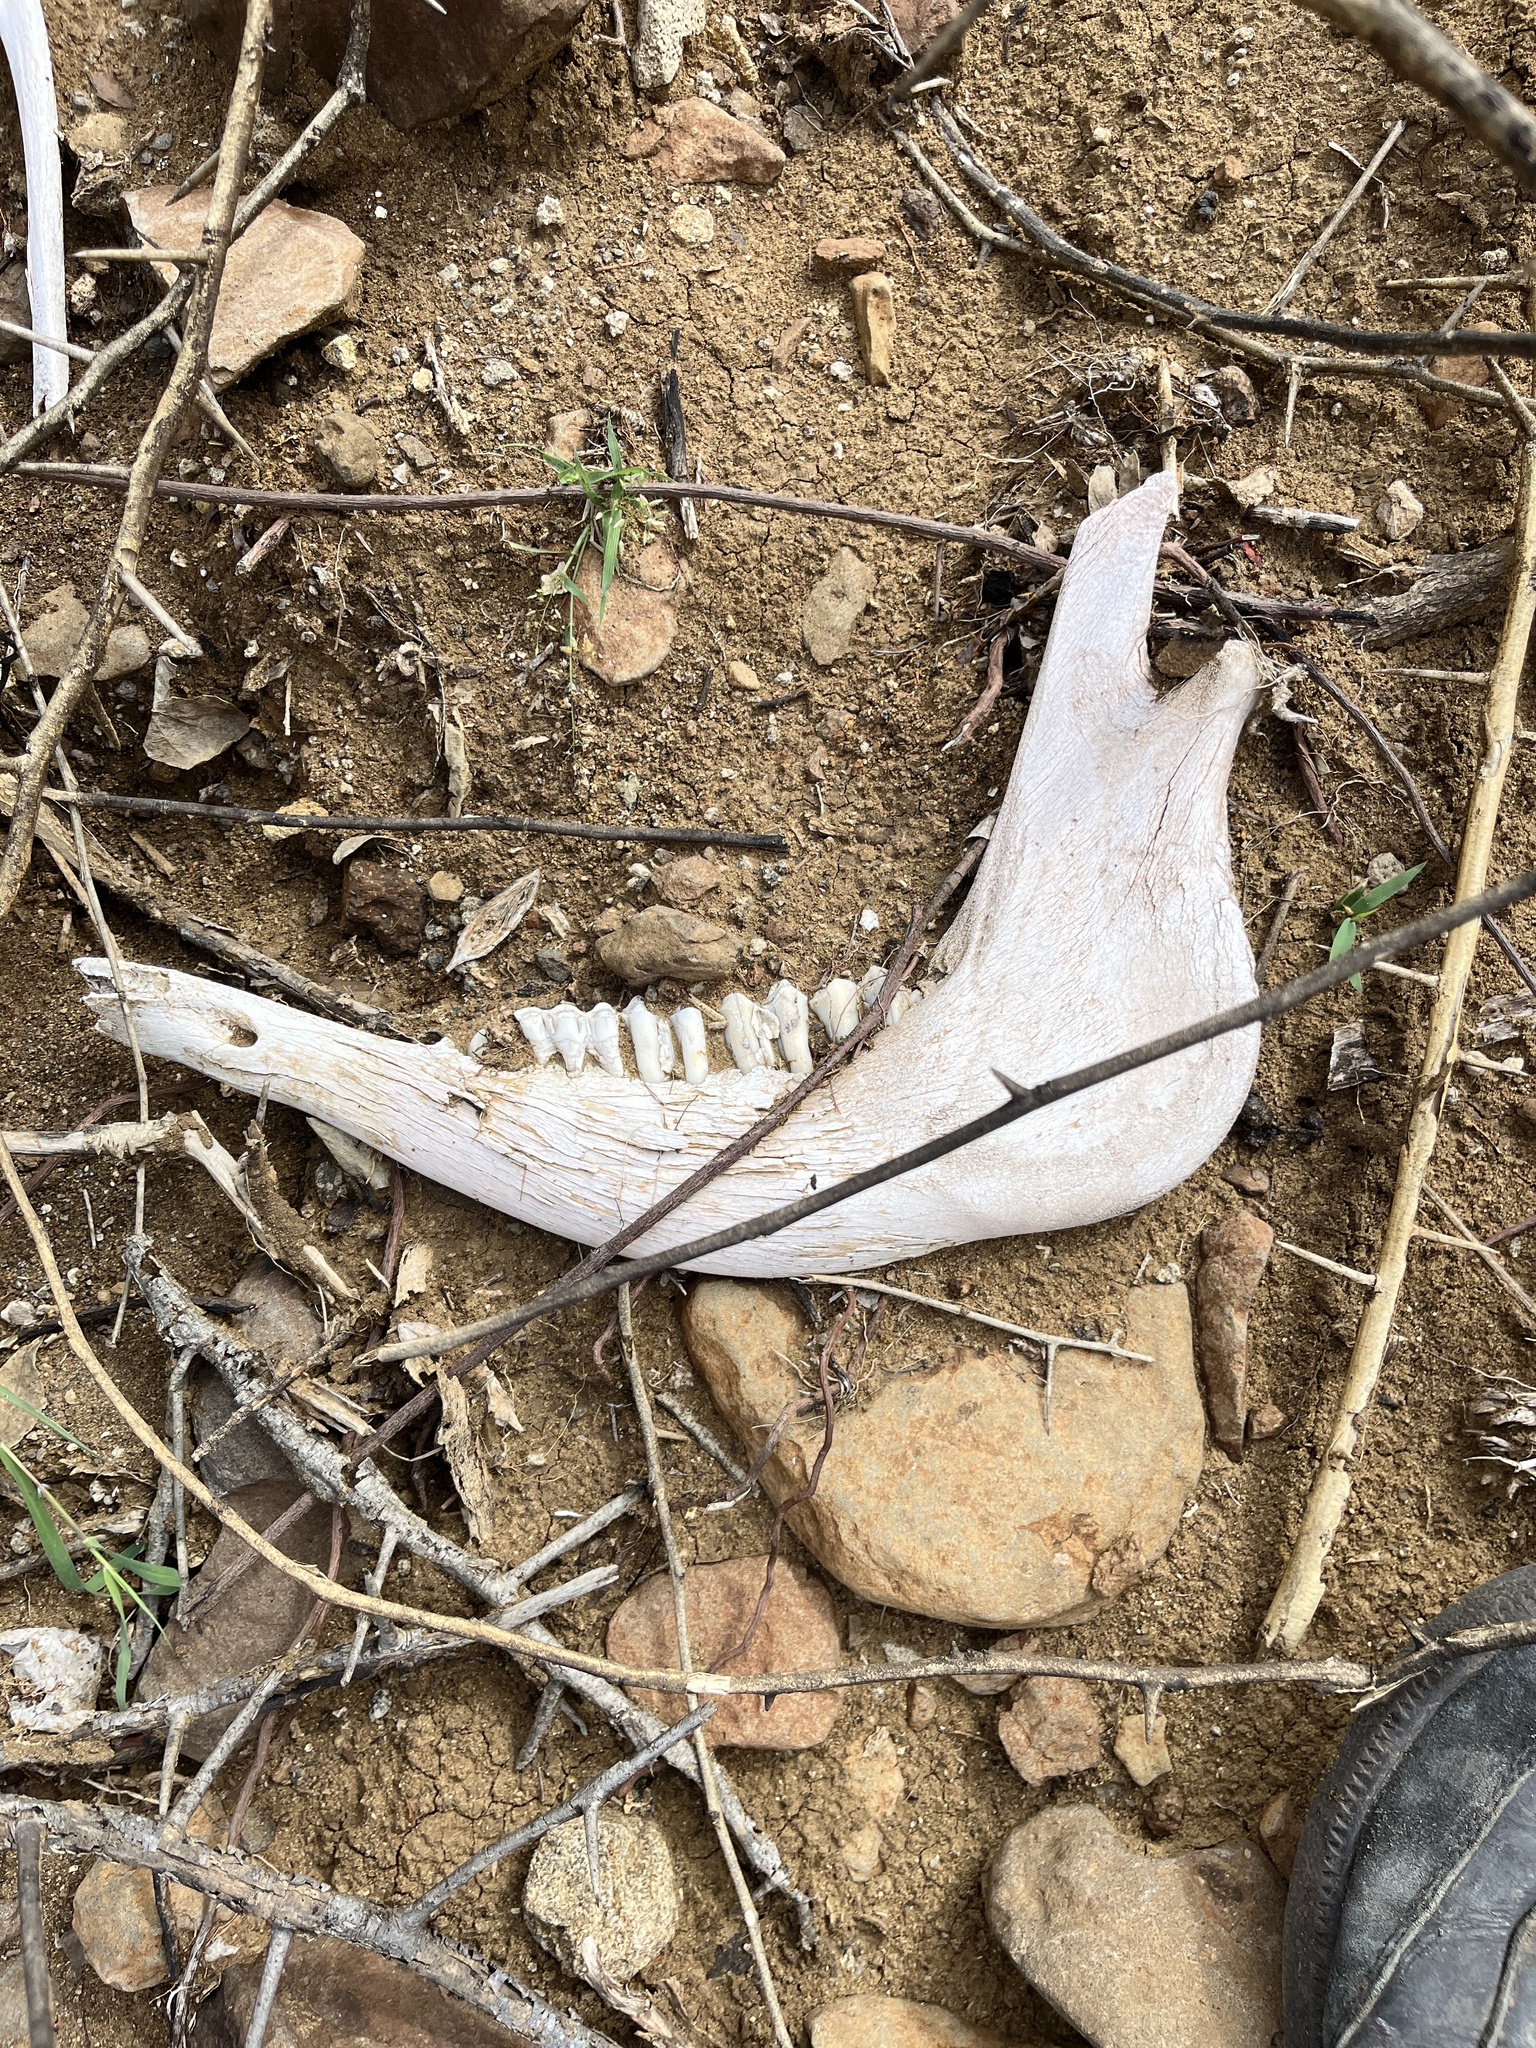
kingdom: Animalia
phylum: Chordata
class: Mammalia
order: Artiodactyla
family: Bovidae
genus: Bos
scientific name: Bos taurus
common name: Domesticated cattle
